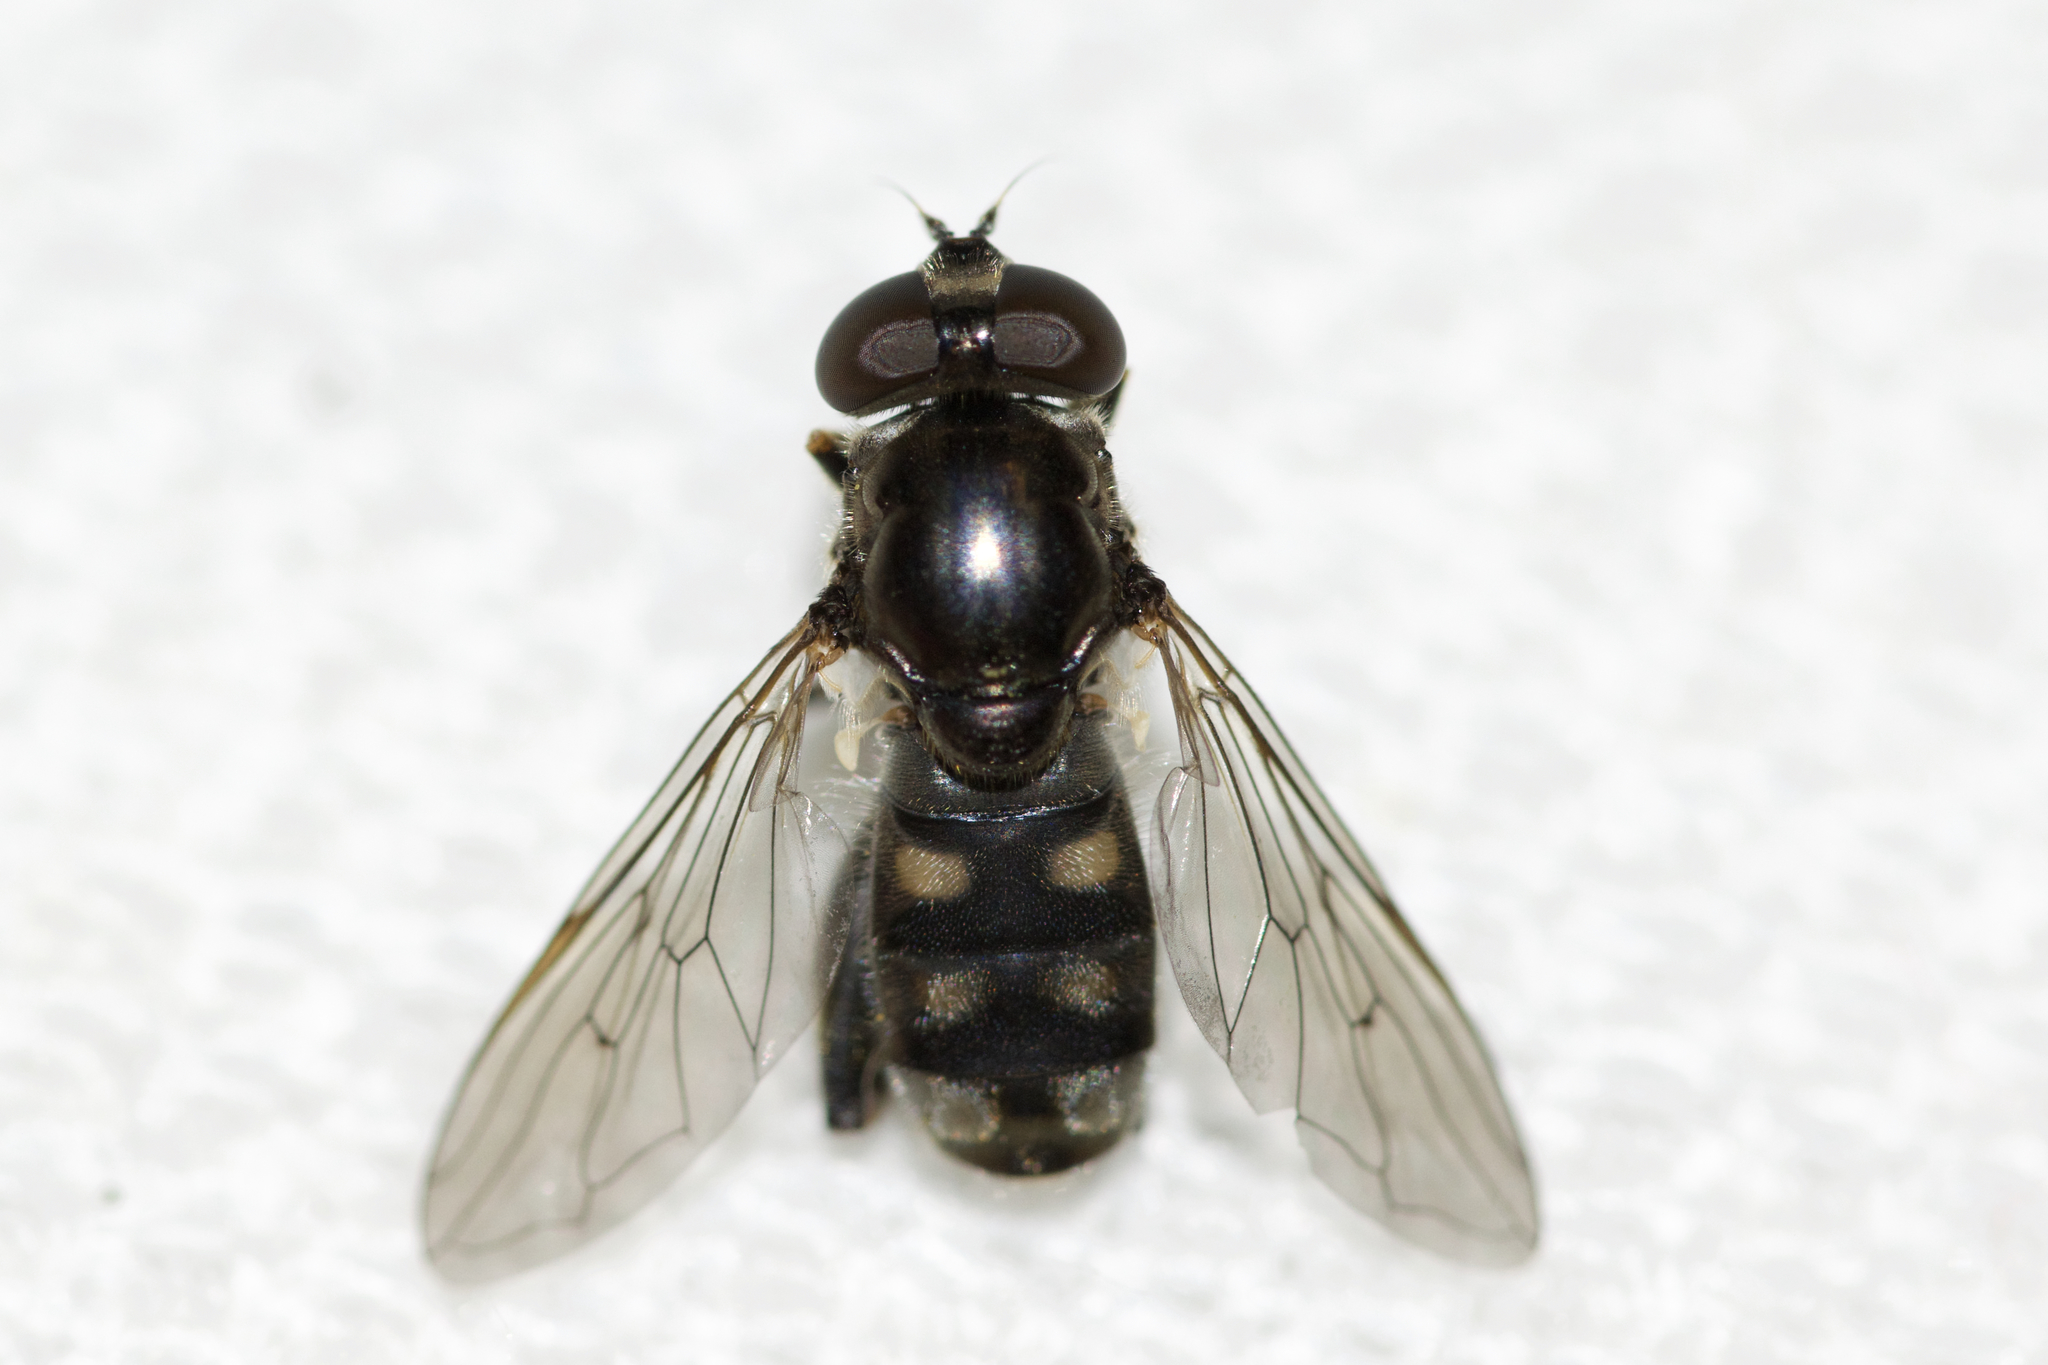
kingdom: Animalia
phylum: Arthropoda
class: Insecta
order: Diptera
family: Syrphidae
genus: Chalcosyrphus
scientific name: Chalcosyrphus nemorum
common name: Dusky-banded forest fly
